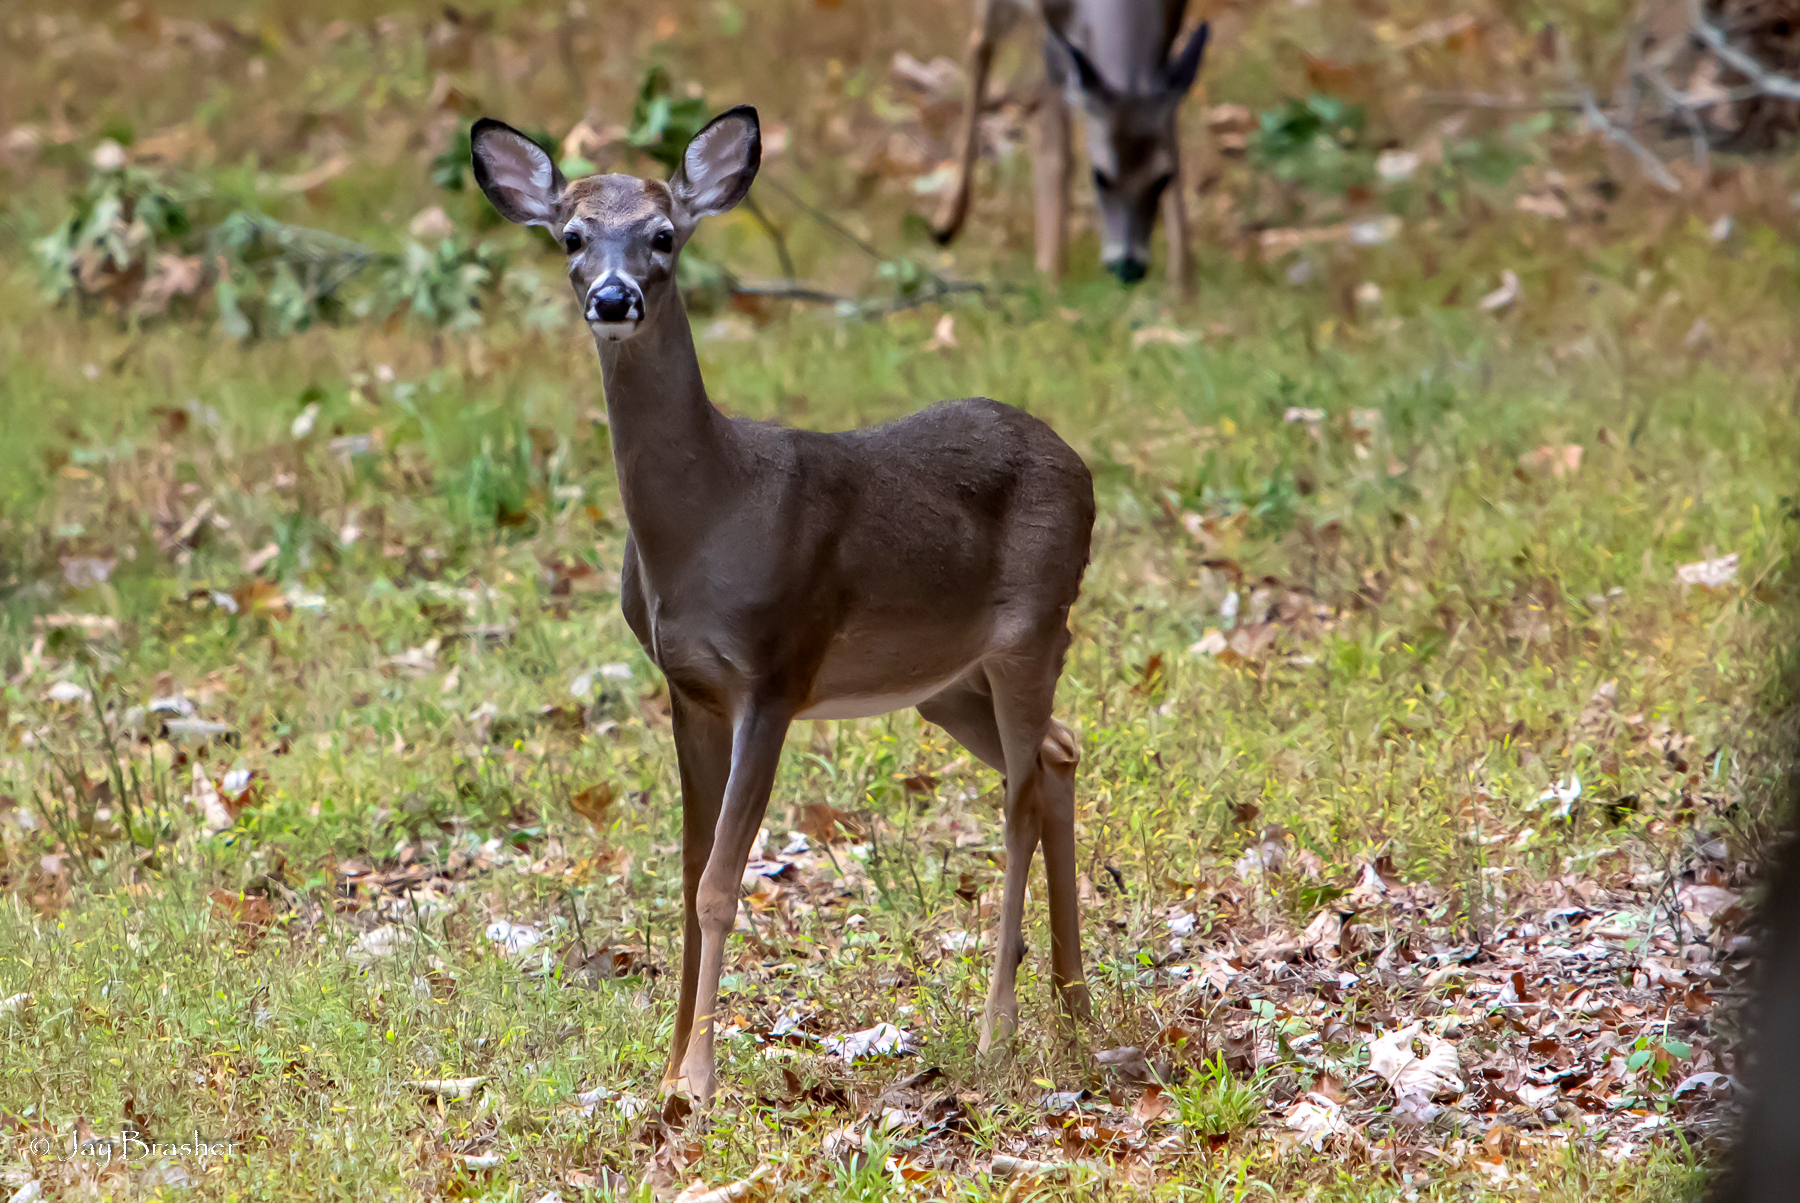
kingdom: Animalia
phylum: Chordata
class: Mammalia
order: Artiodactyla
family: Cervidae
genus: Odocoileus
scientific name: Odocoileus virginianus
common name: White-tailed deer
